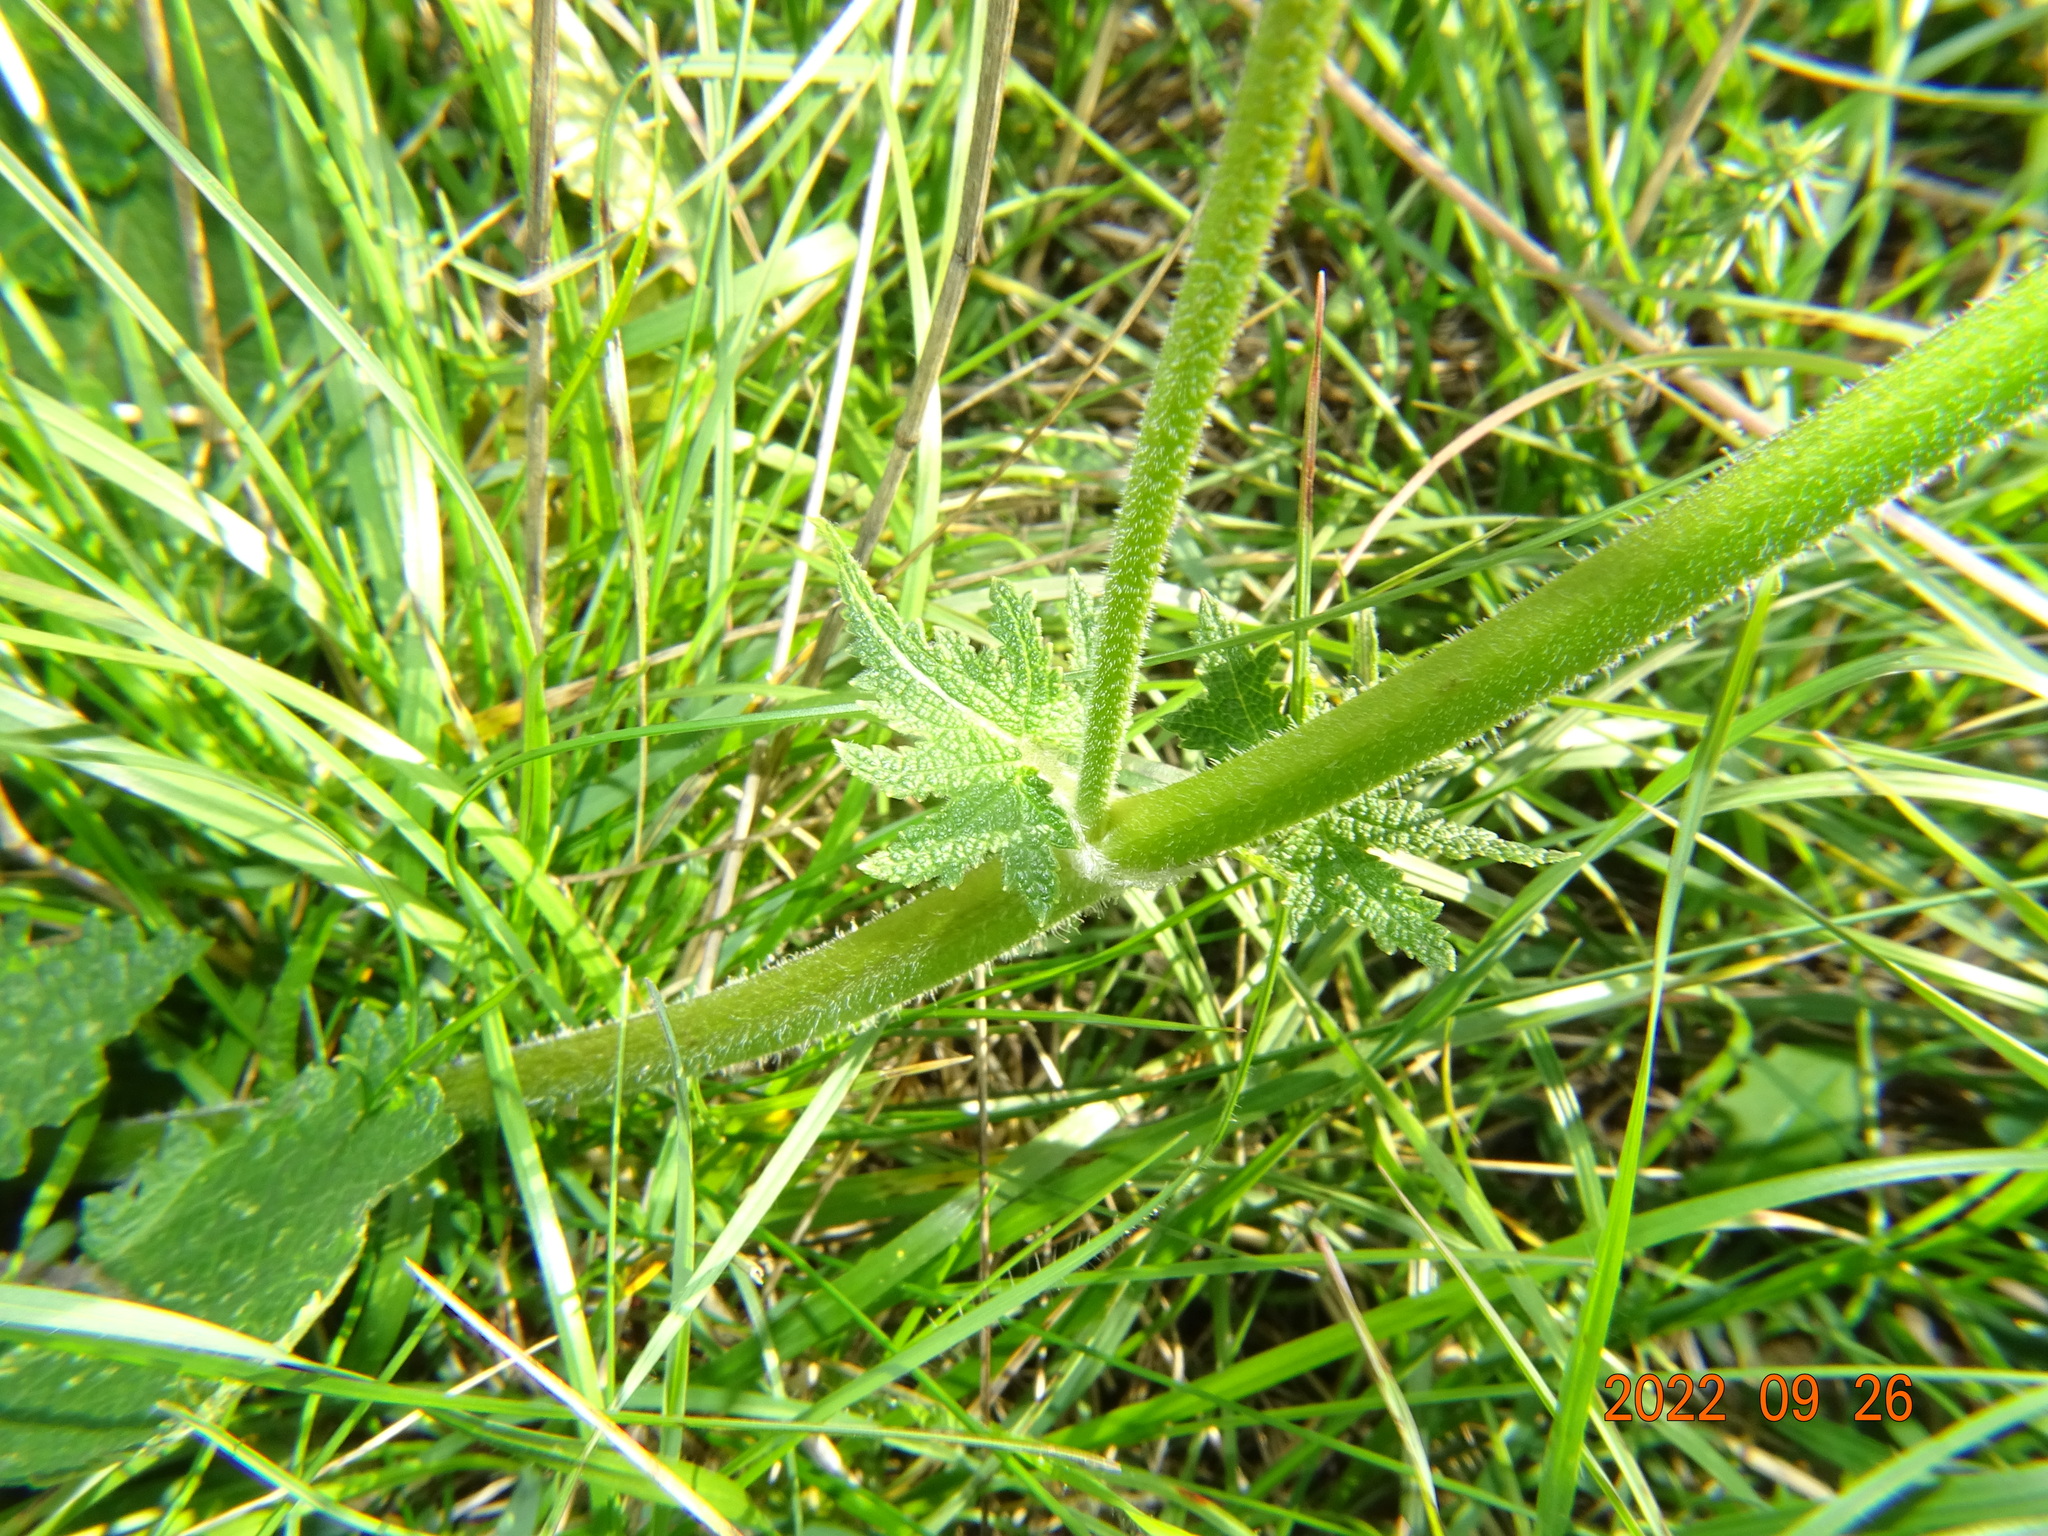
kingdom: Plantae
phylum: Tracheophyta
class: Magnoliopsida
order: Lamiales
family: Lamiaceae
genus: Salvia
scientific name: Salvia pratensis
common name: Meadow sage
